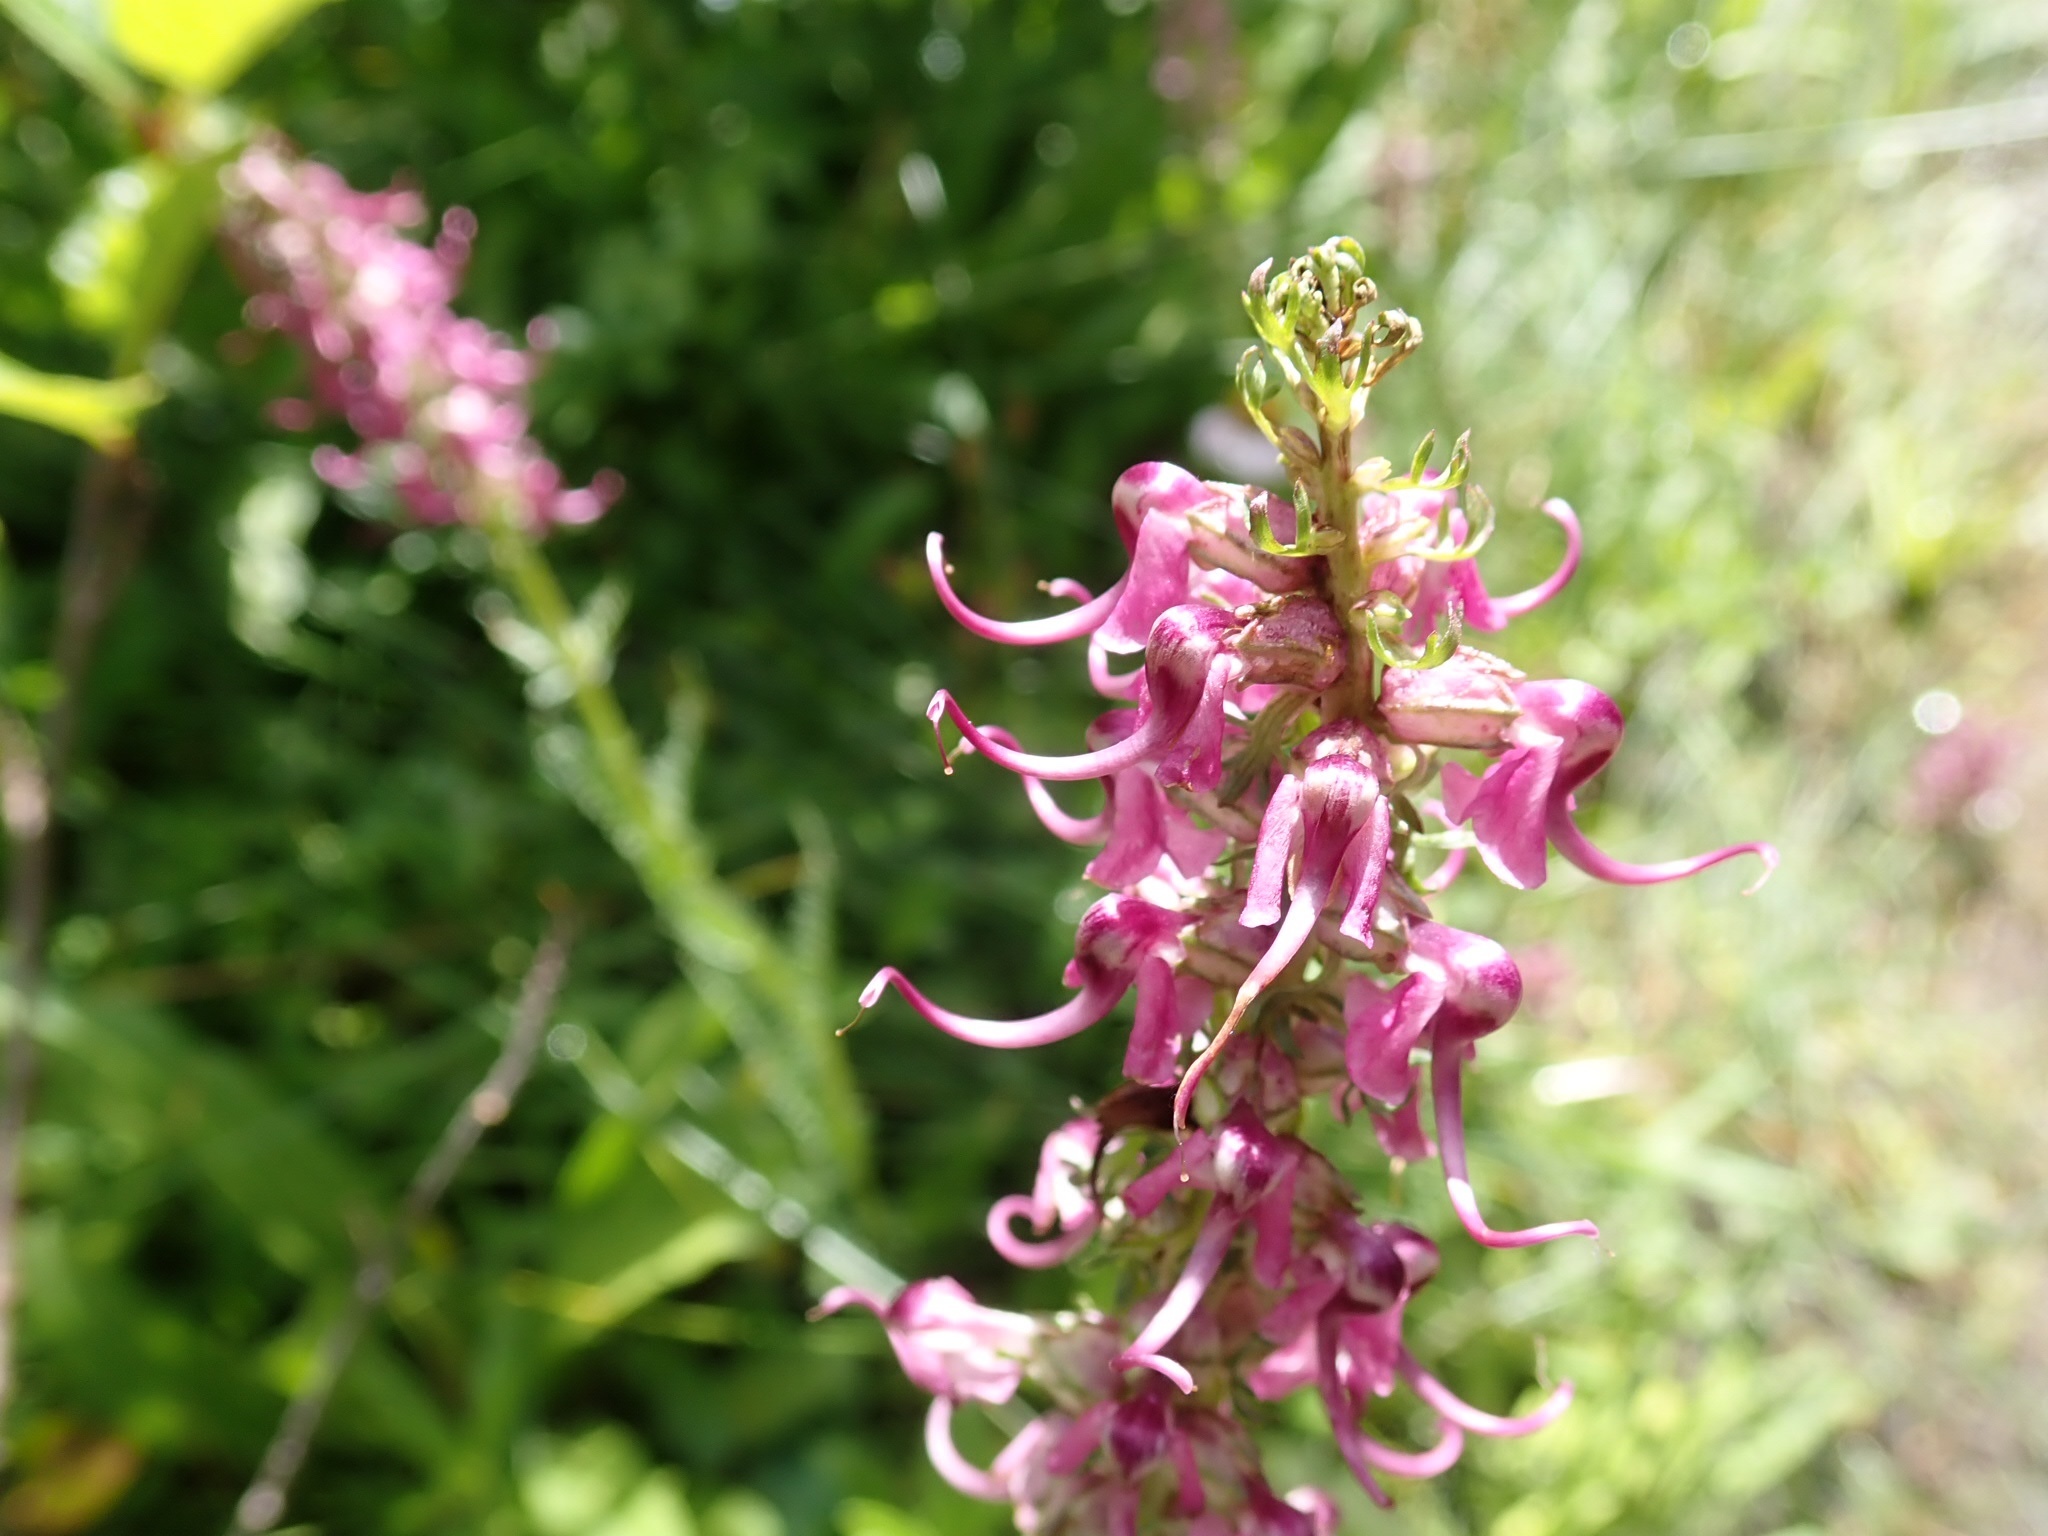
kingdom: Plantae
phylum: Tracheophyta
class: Magnoliopsida
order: Lamiales
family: Orobanchaceae
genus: Pedicularis
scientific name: Pedicularis groenlandica
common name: Elephant's-head
